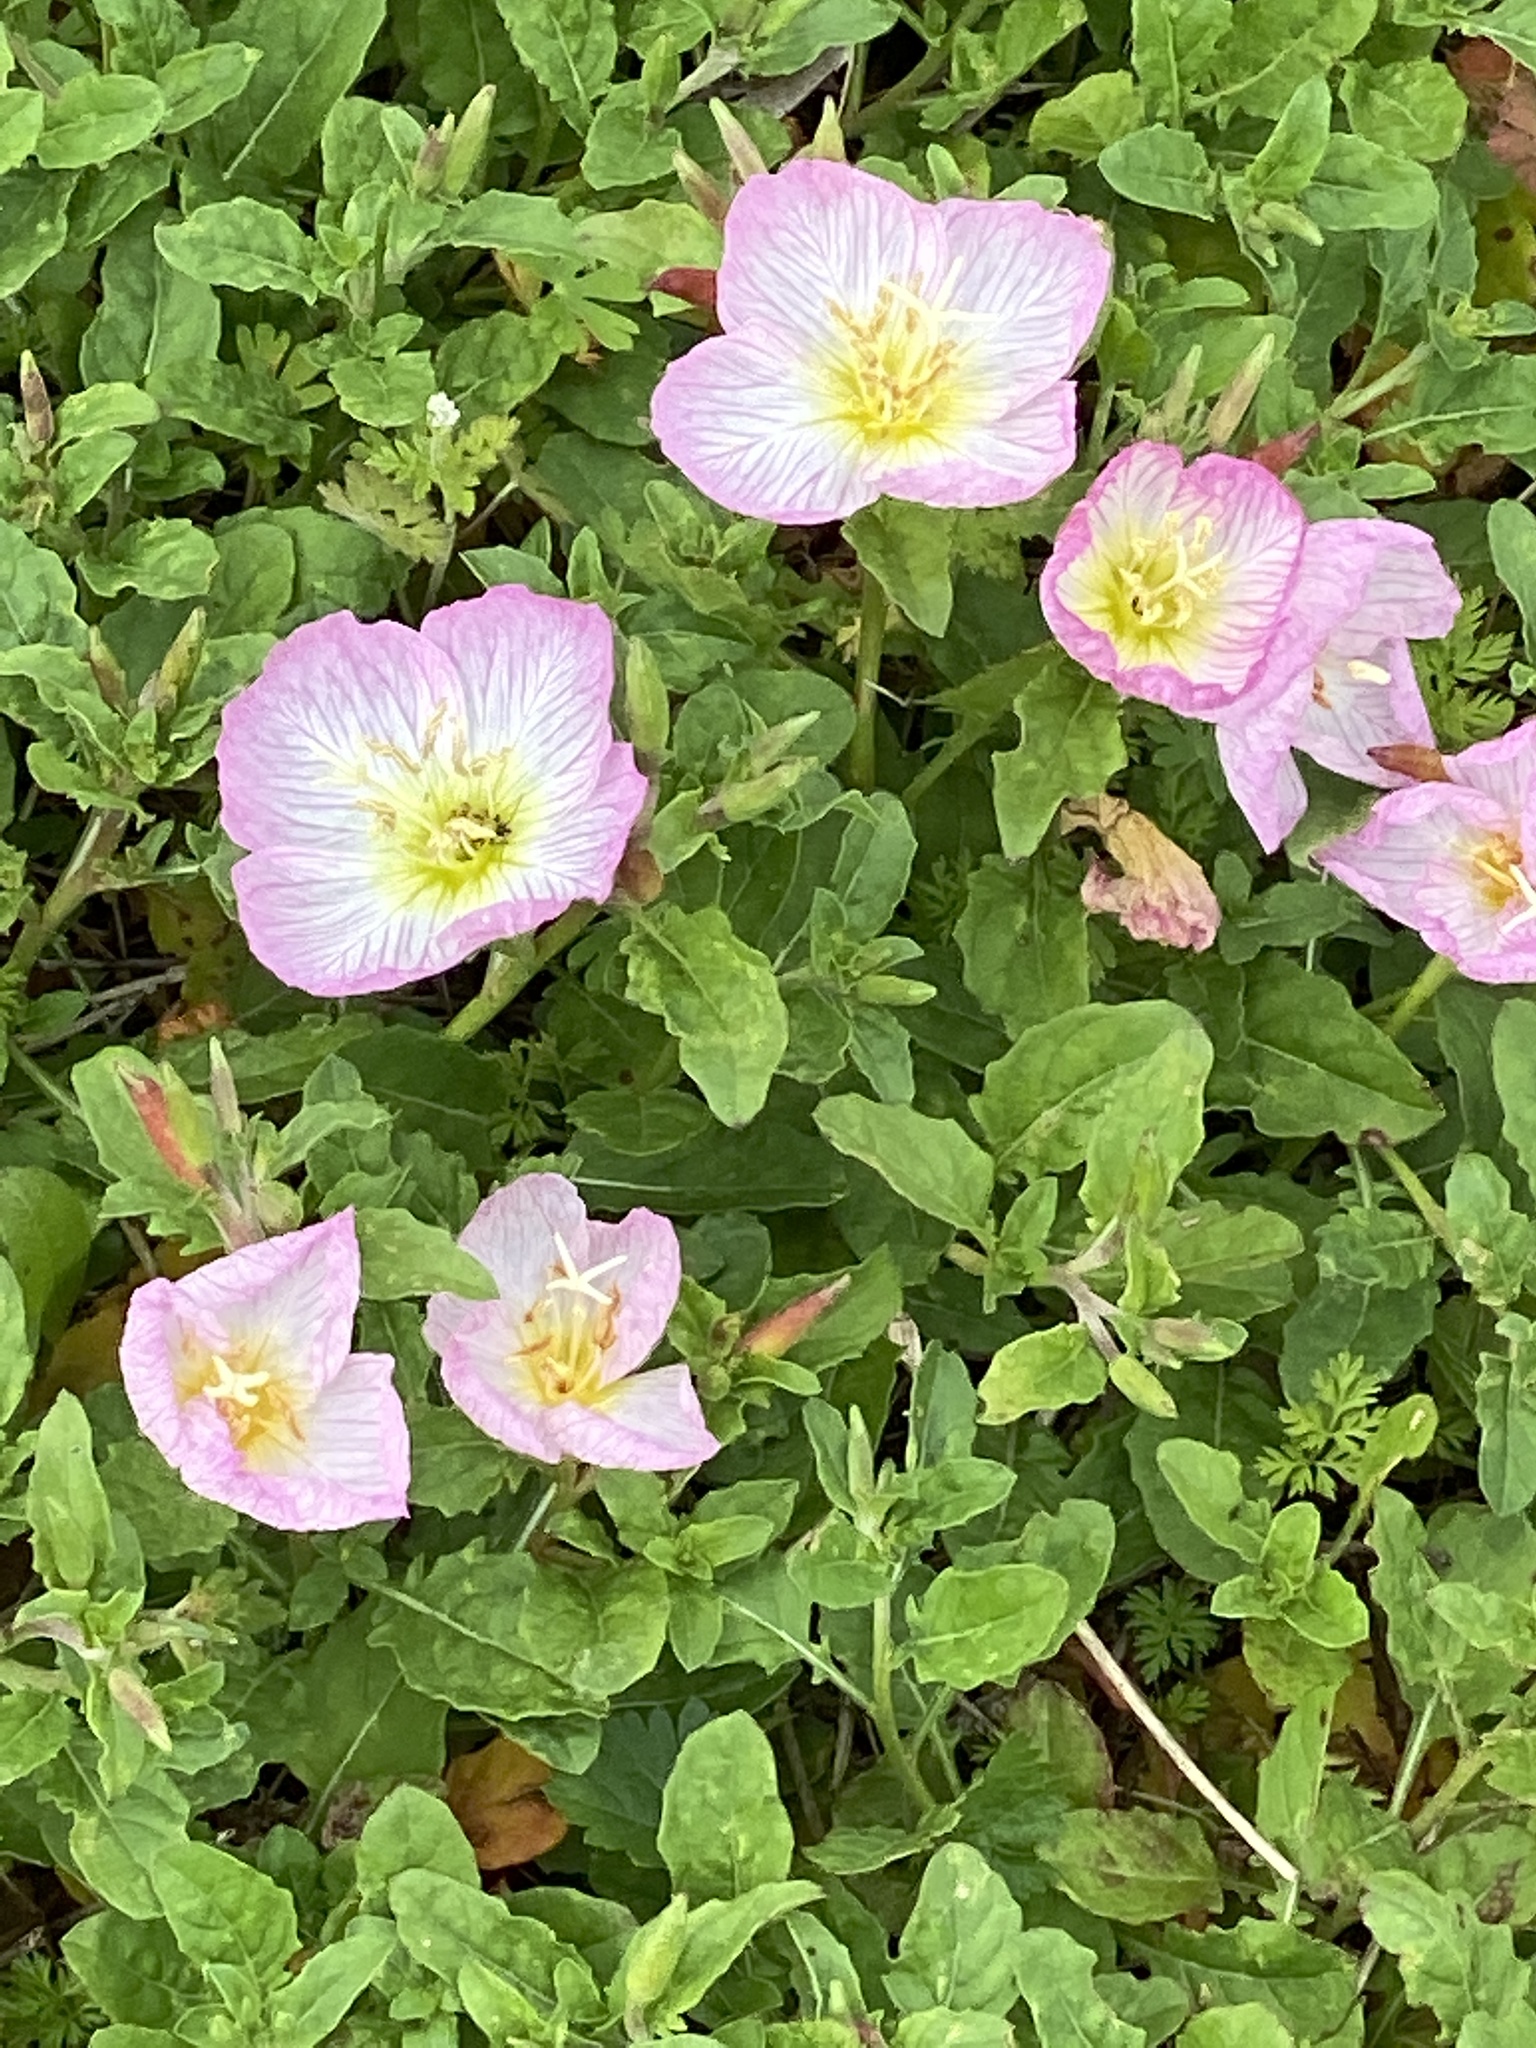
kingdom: Plantae
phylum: Tracheophyta
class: Magnoliopsida
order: Myrtales
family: Onagraceae
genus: Oenothera
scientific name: Oenothera speciosa
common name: White evening-primrose
